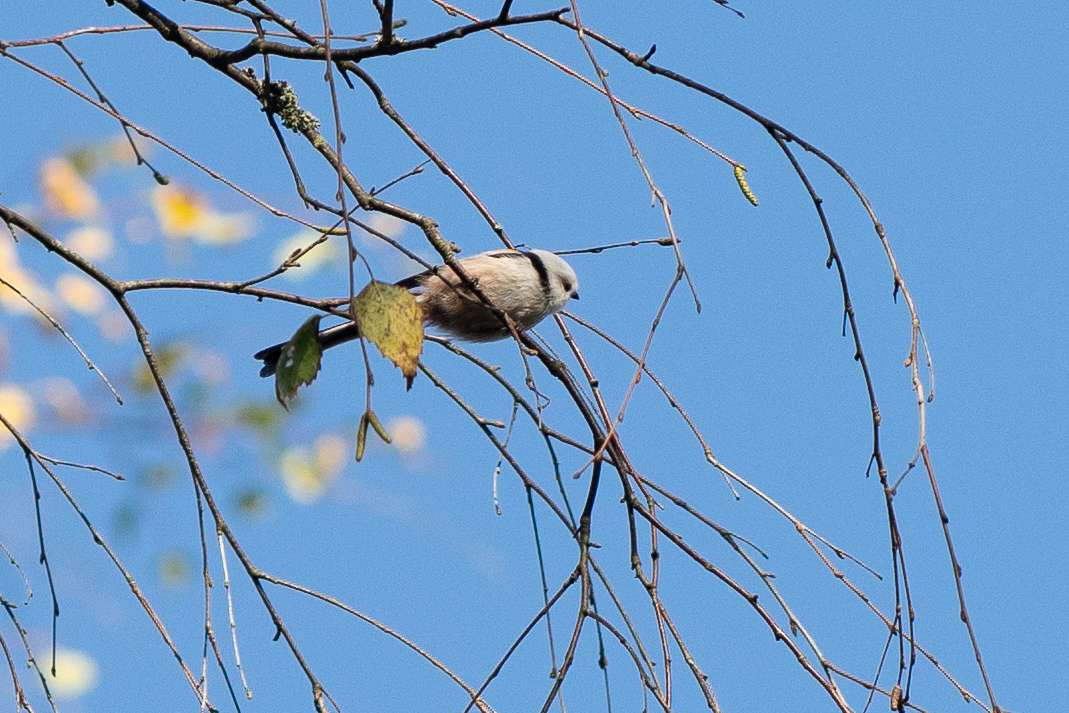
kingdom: Animalia
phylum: Chordata
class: Aves
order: Passeriformes
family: Aegithalidae
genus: Aegithalos
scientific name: Aegithalos caudatus
